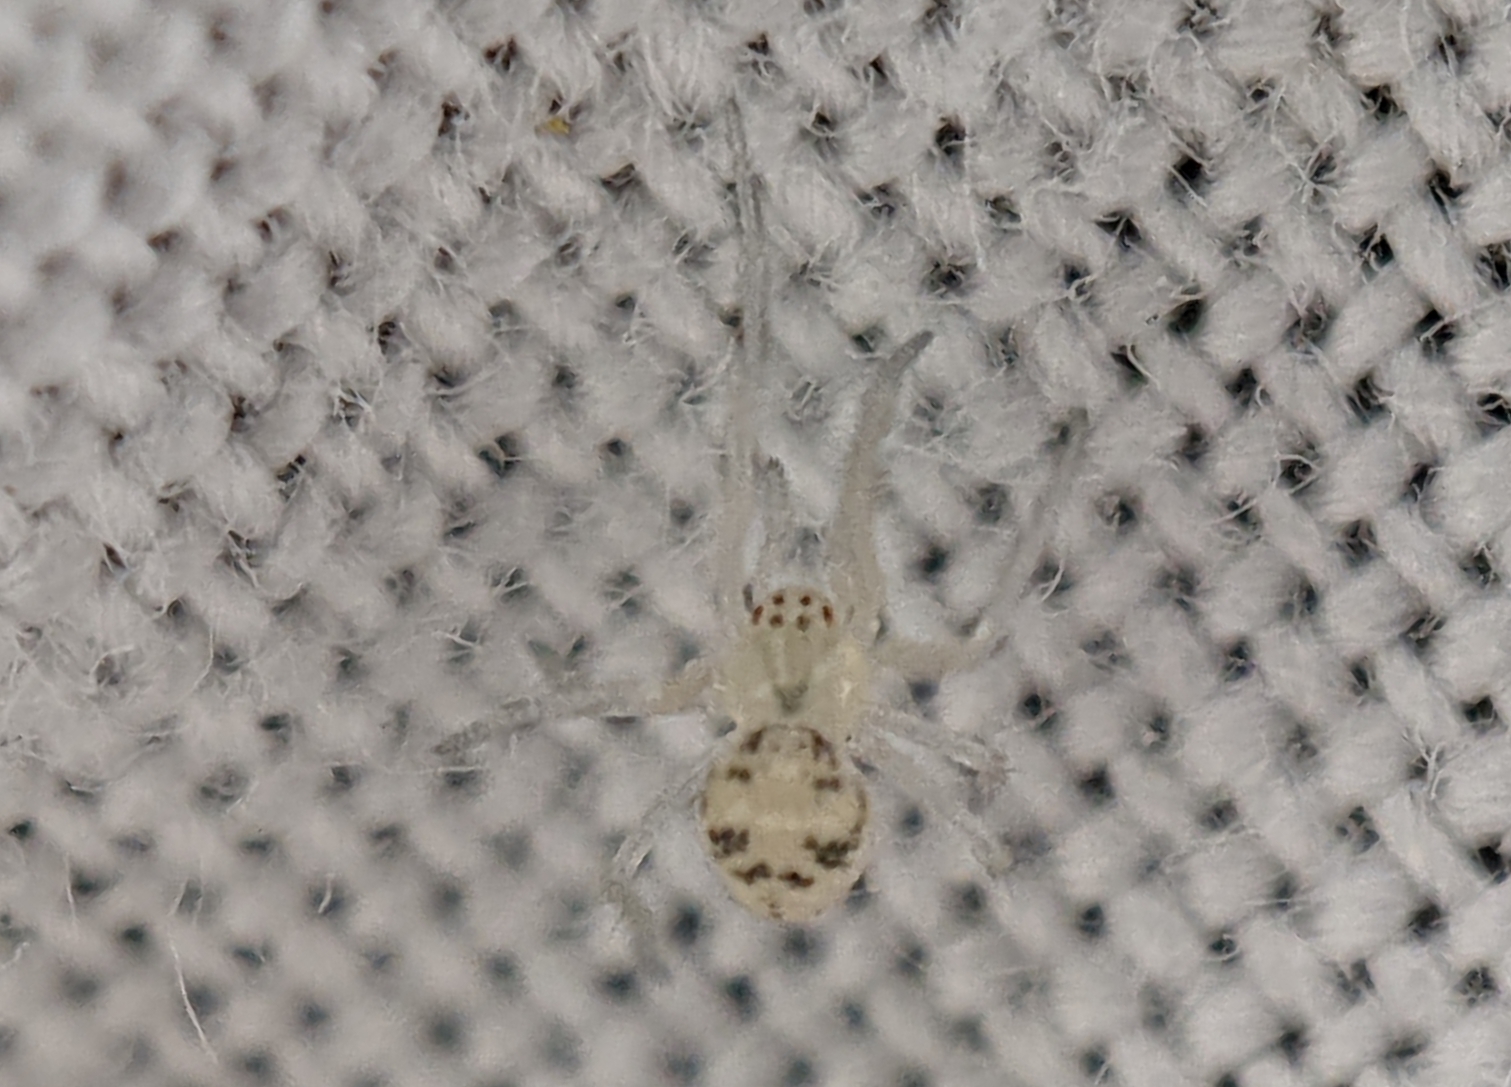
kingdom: Animalia
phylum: Arthropoda
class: Arachnida
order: Araneae
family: Theridiidae
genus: Paidiscura
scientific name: Paidiscura pallens
